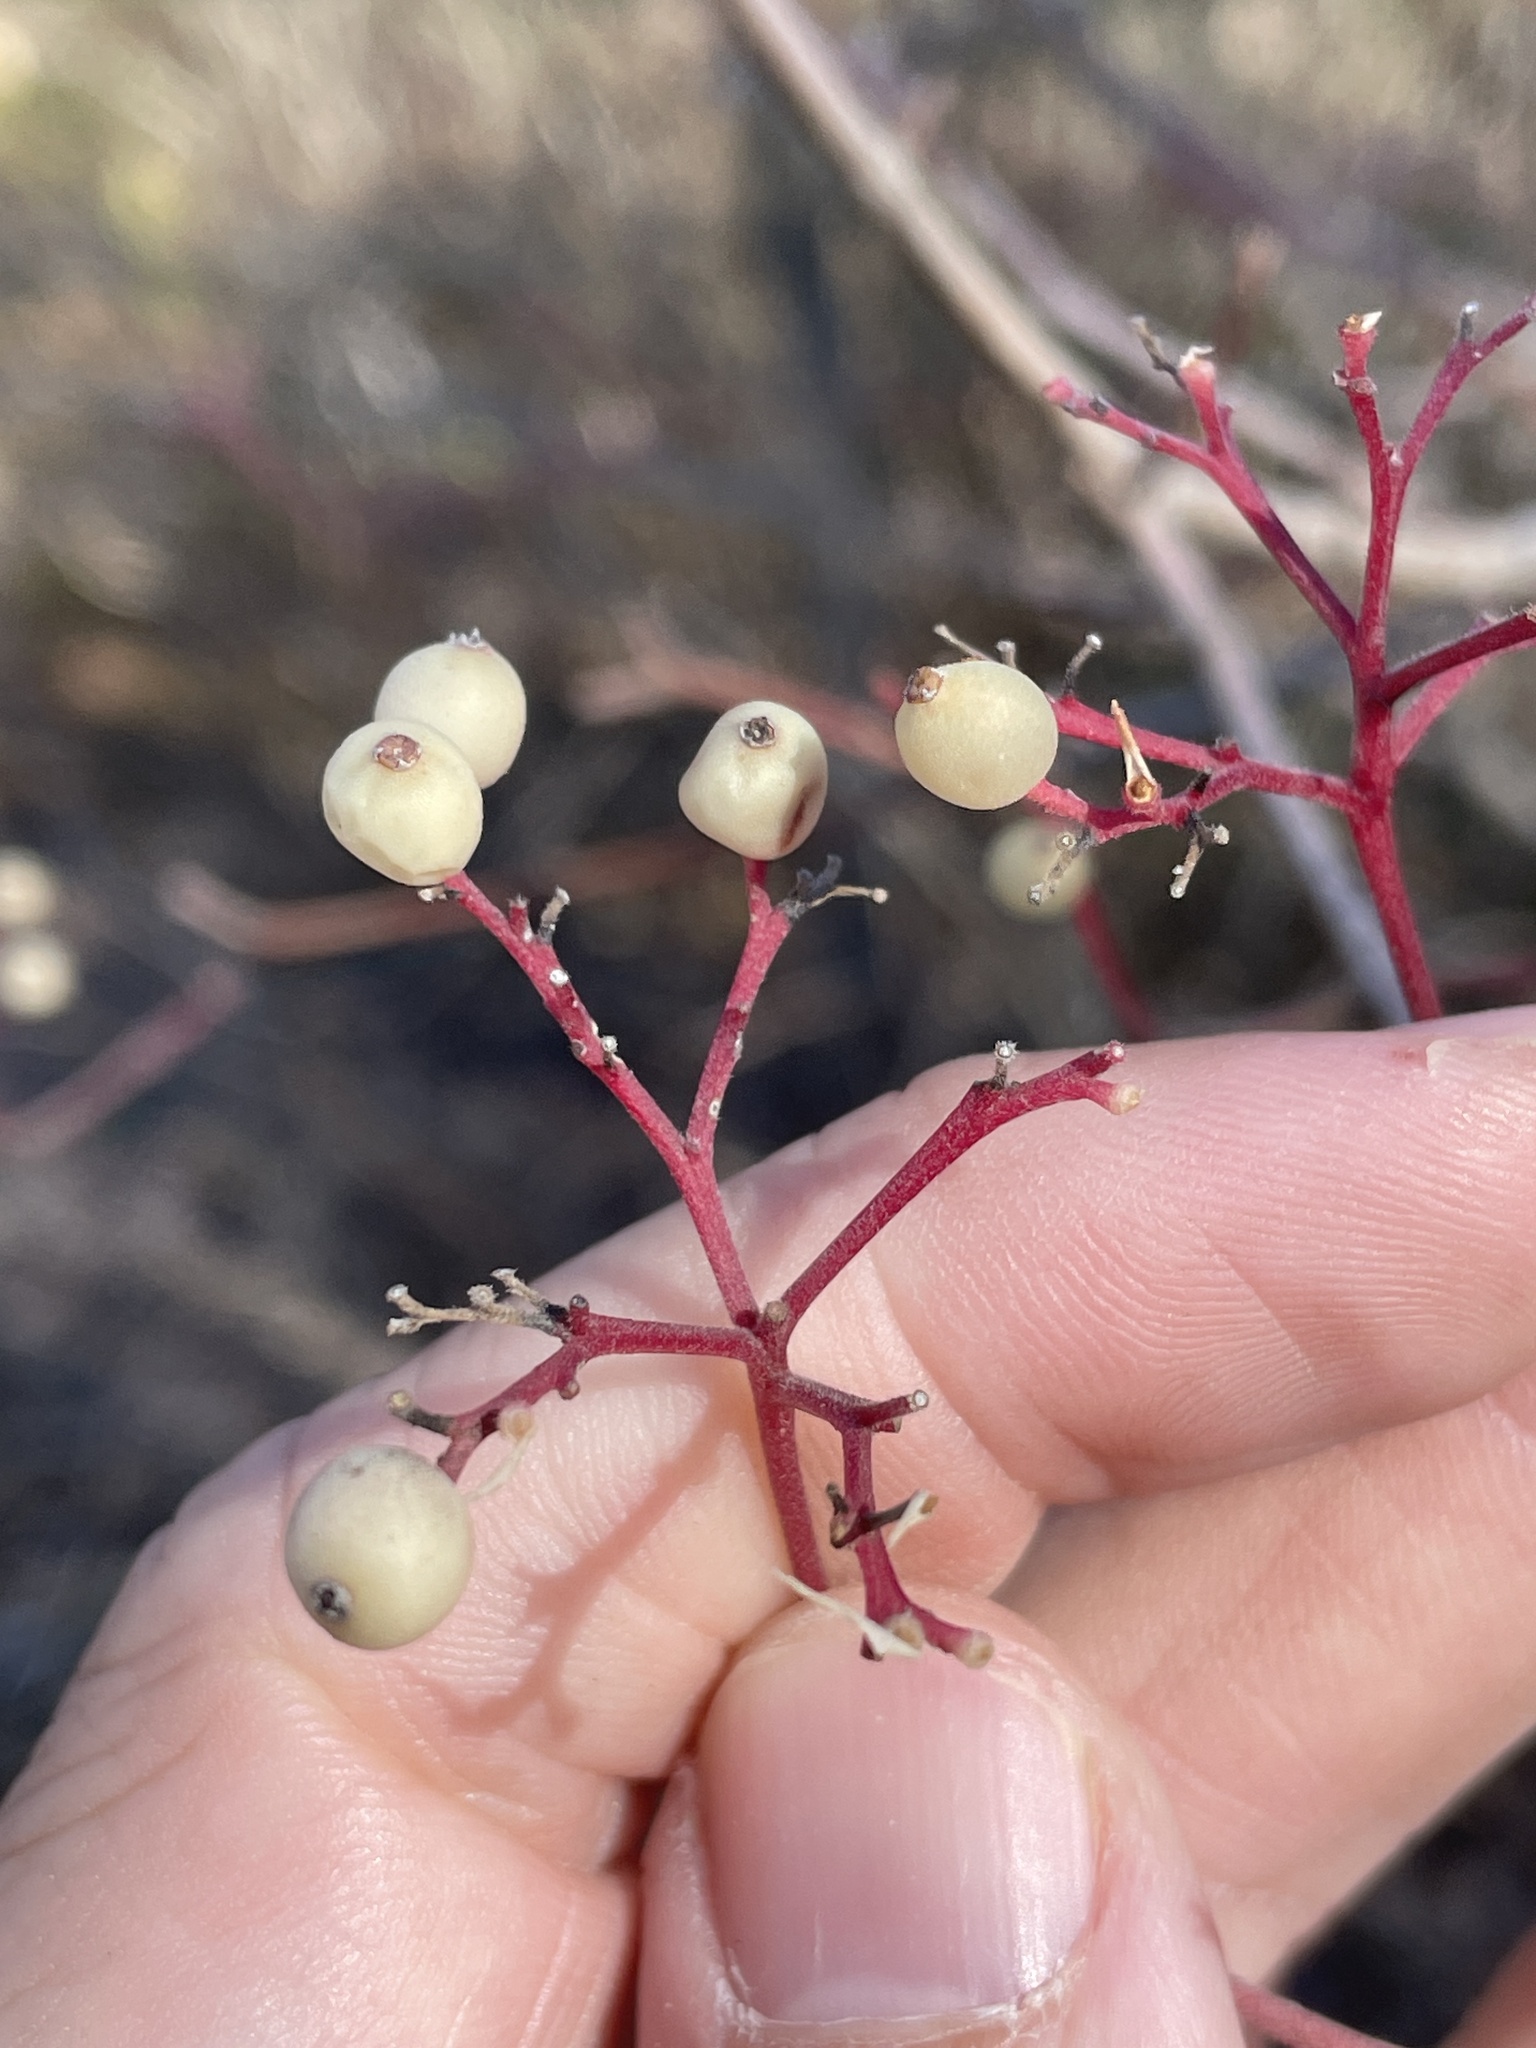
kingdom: Plantae
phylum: Tracheophyta
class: Magnoliopsida
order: Cornales
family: Cornaceae
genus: Cornus
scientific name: Cornus drummondii
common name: Rough-leaf dogwood
